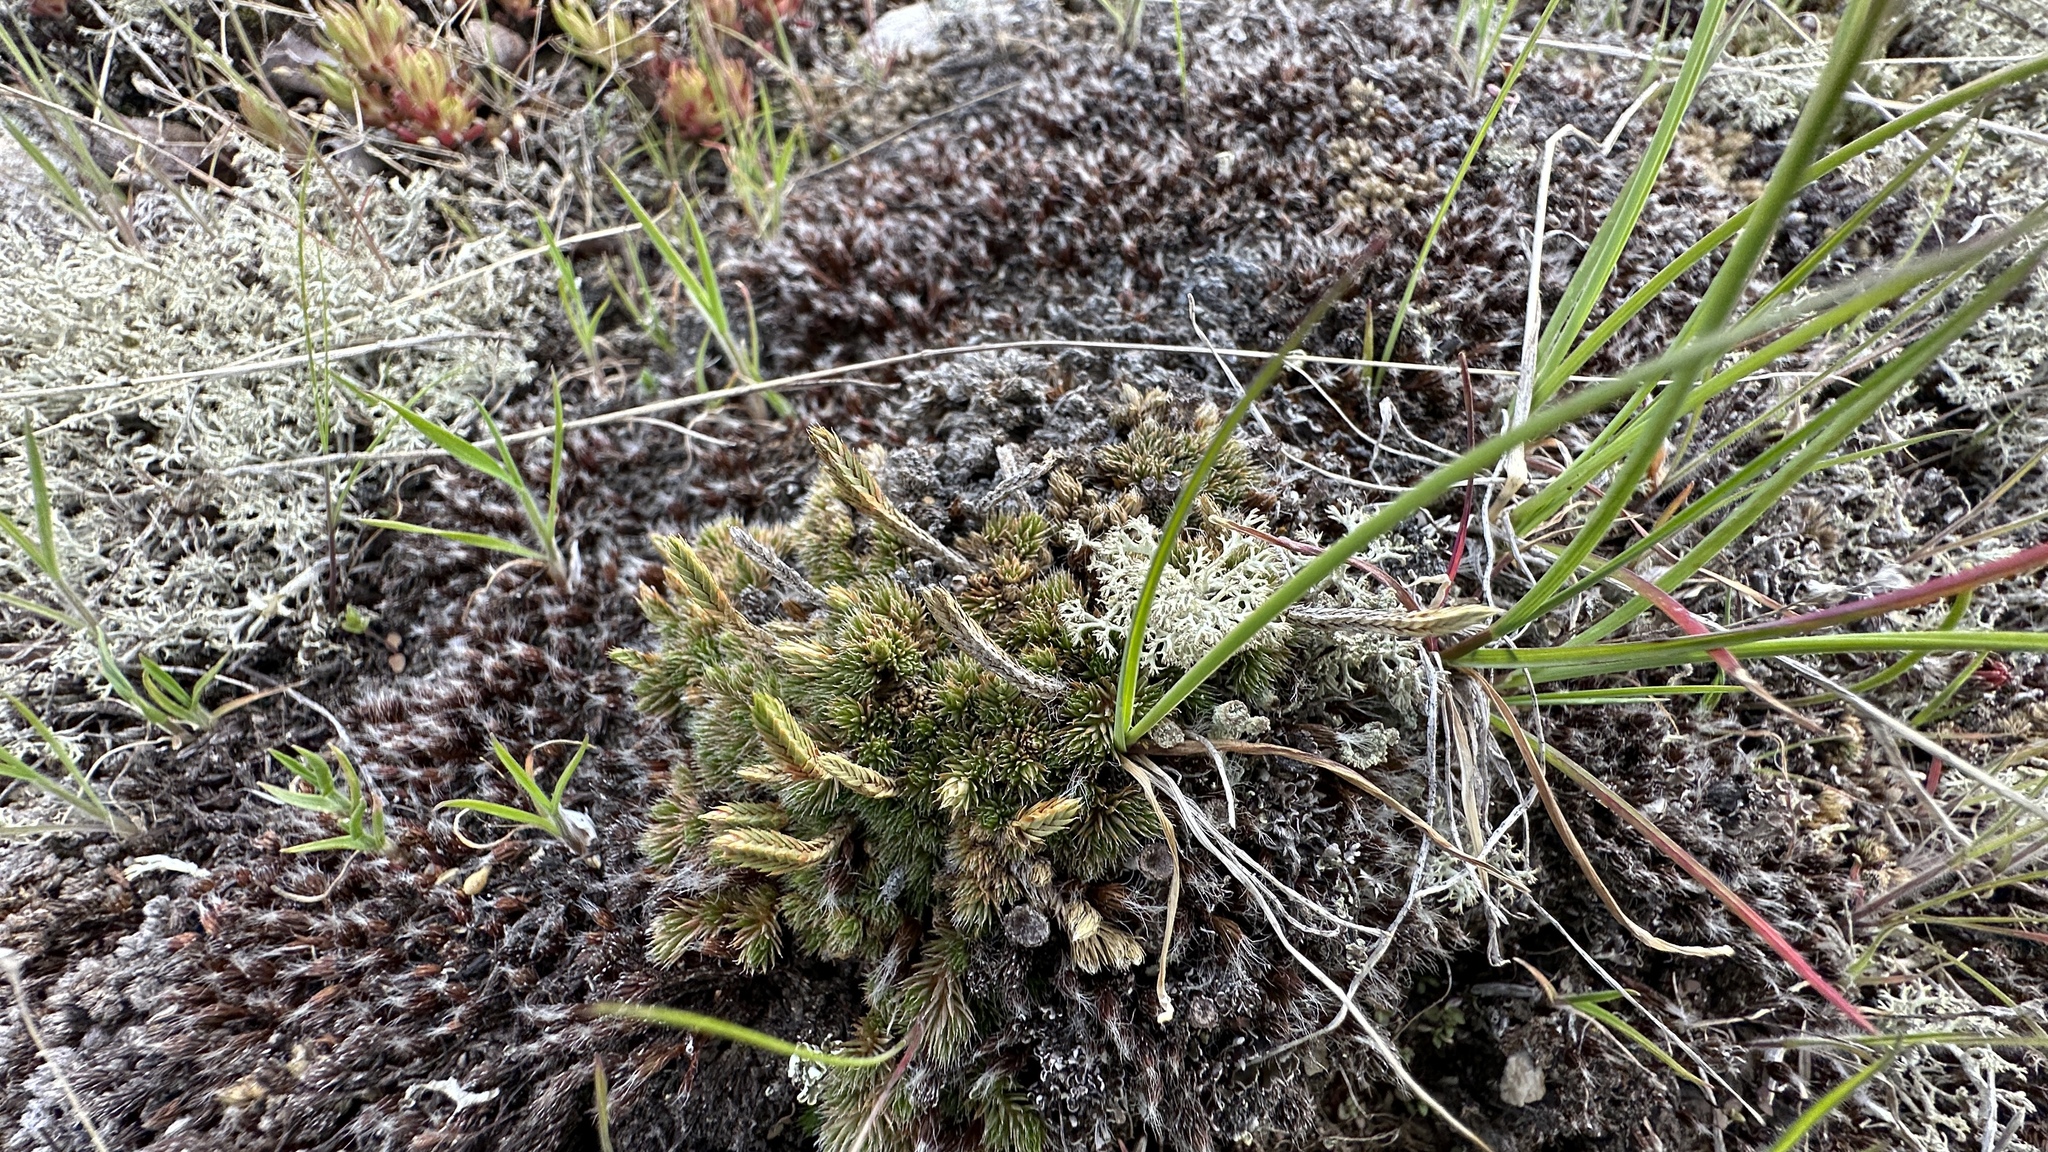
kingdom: Plantae
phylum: Tracheophyta
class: Lycopodiopsida
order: Selaginellales
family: Selaginellaceae
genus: Selaginella
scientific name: Selaginella densa
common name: Mountain spike-moss
